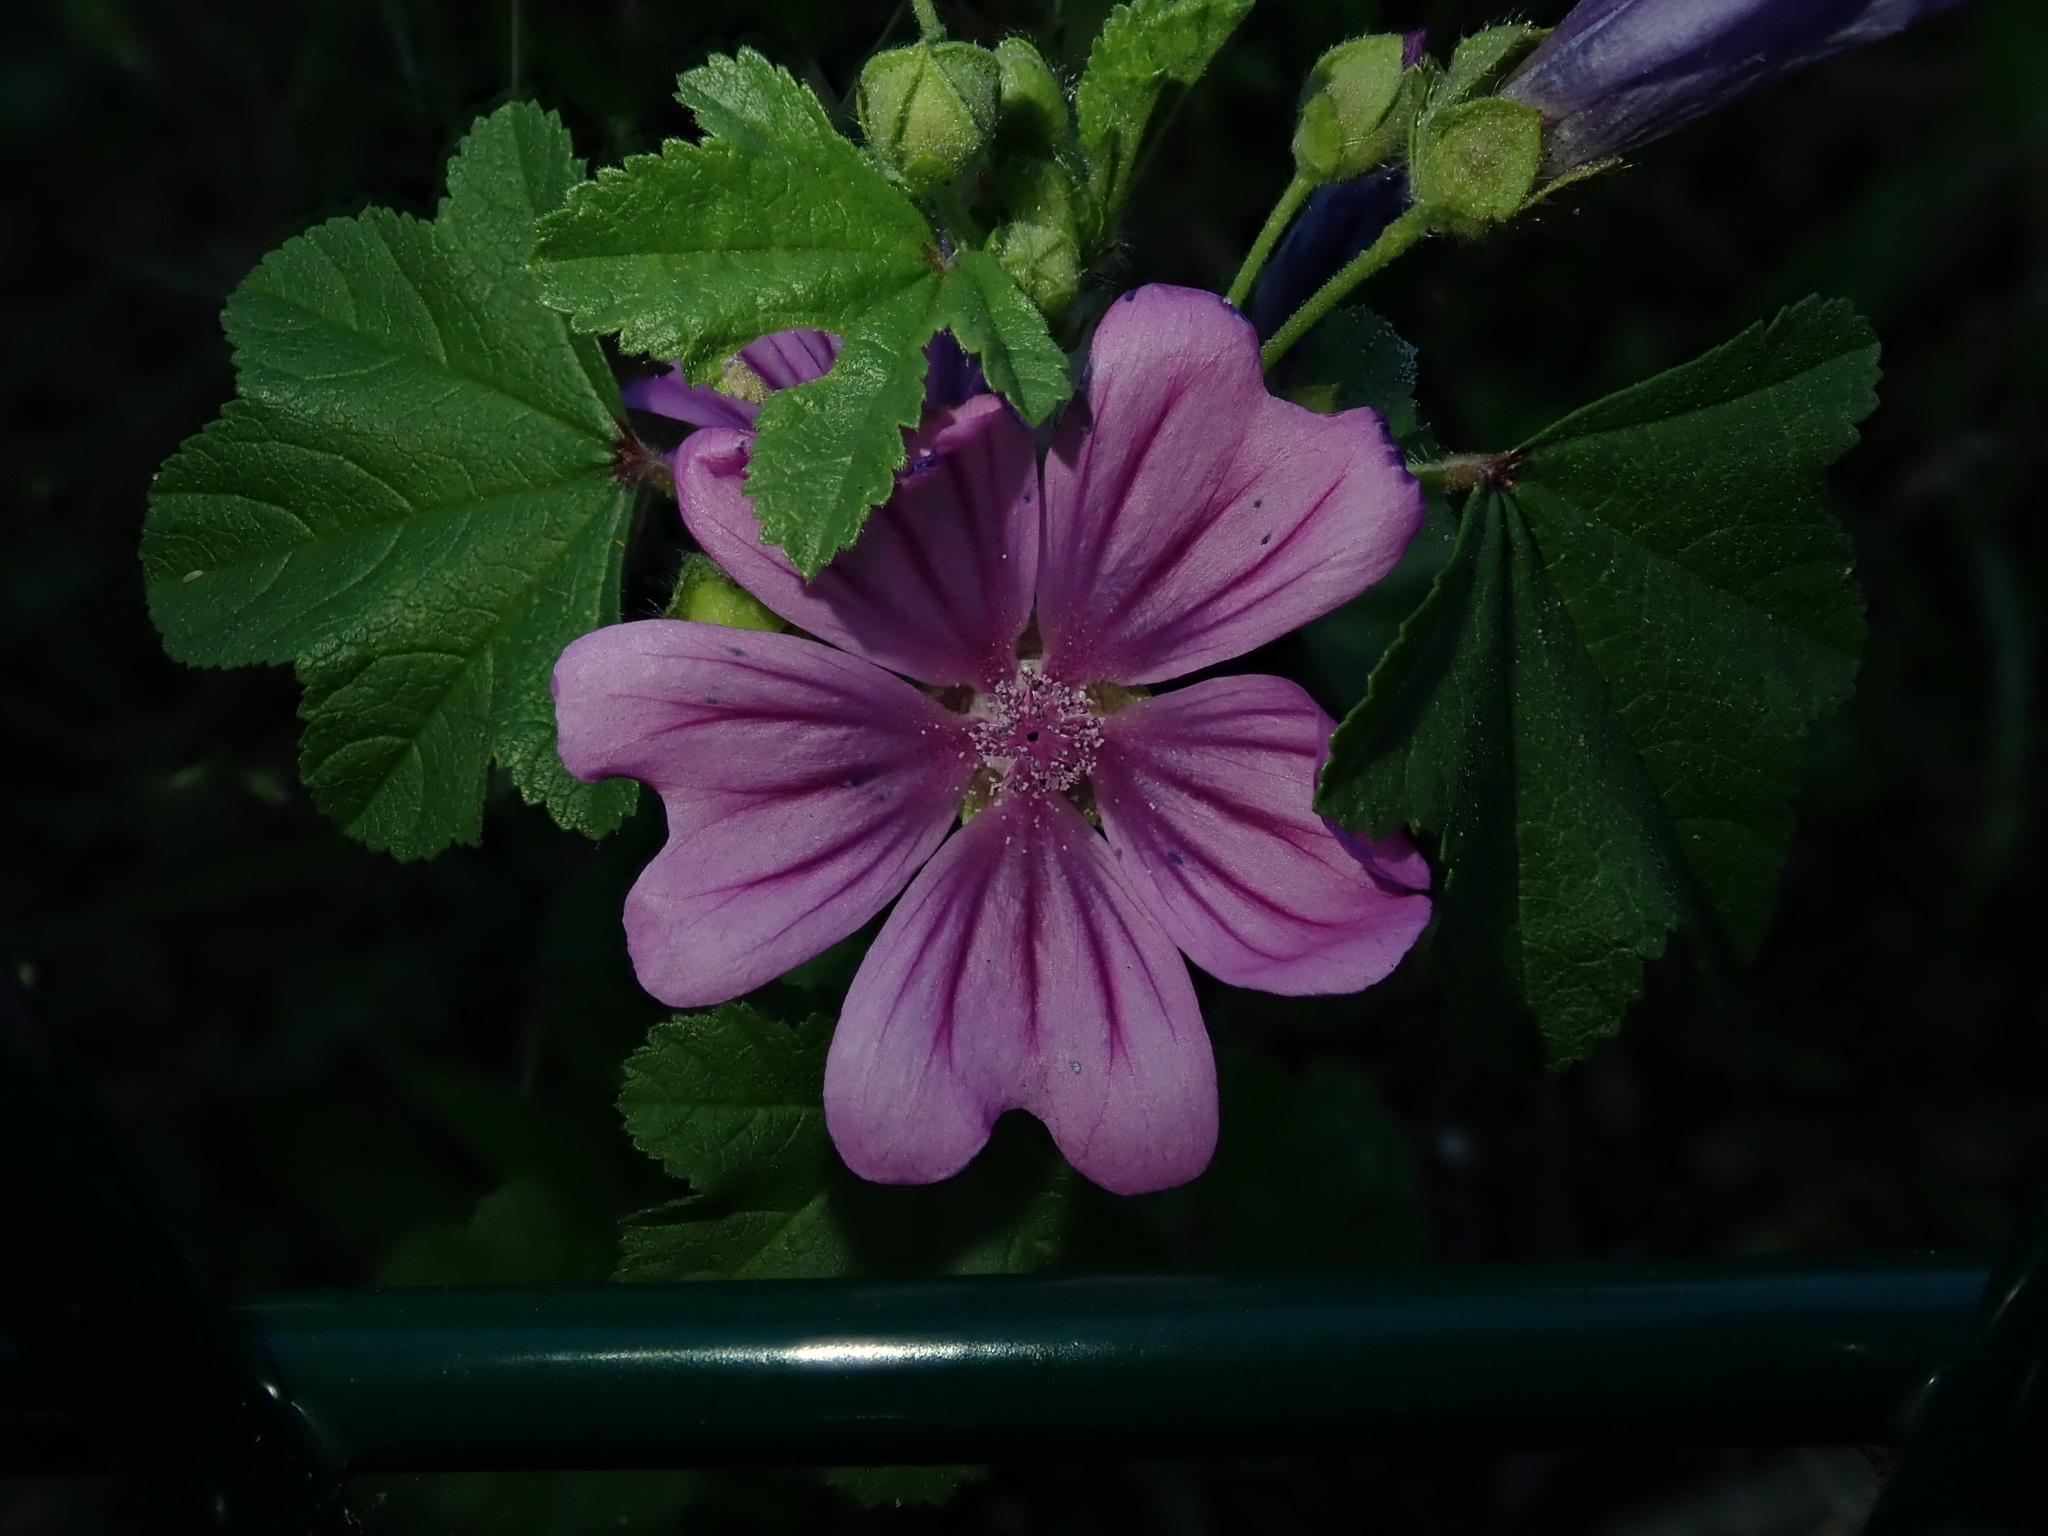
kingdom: Plantae
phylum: Tracheophyta
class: Magnoliopsida
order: Malvales
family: Malvaceae
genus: Malva
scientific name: Malva sylvestris
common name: Common mallow
